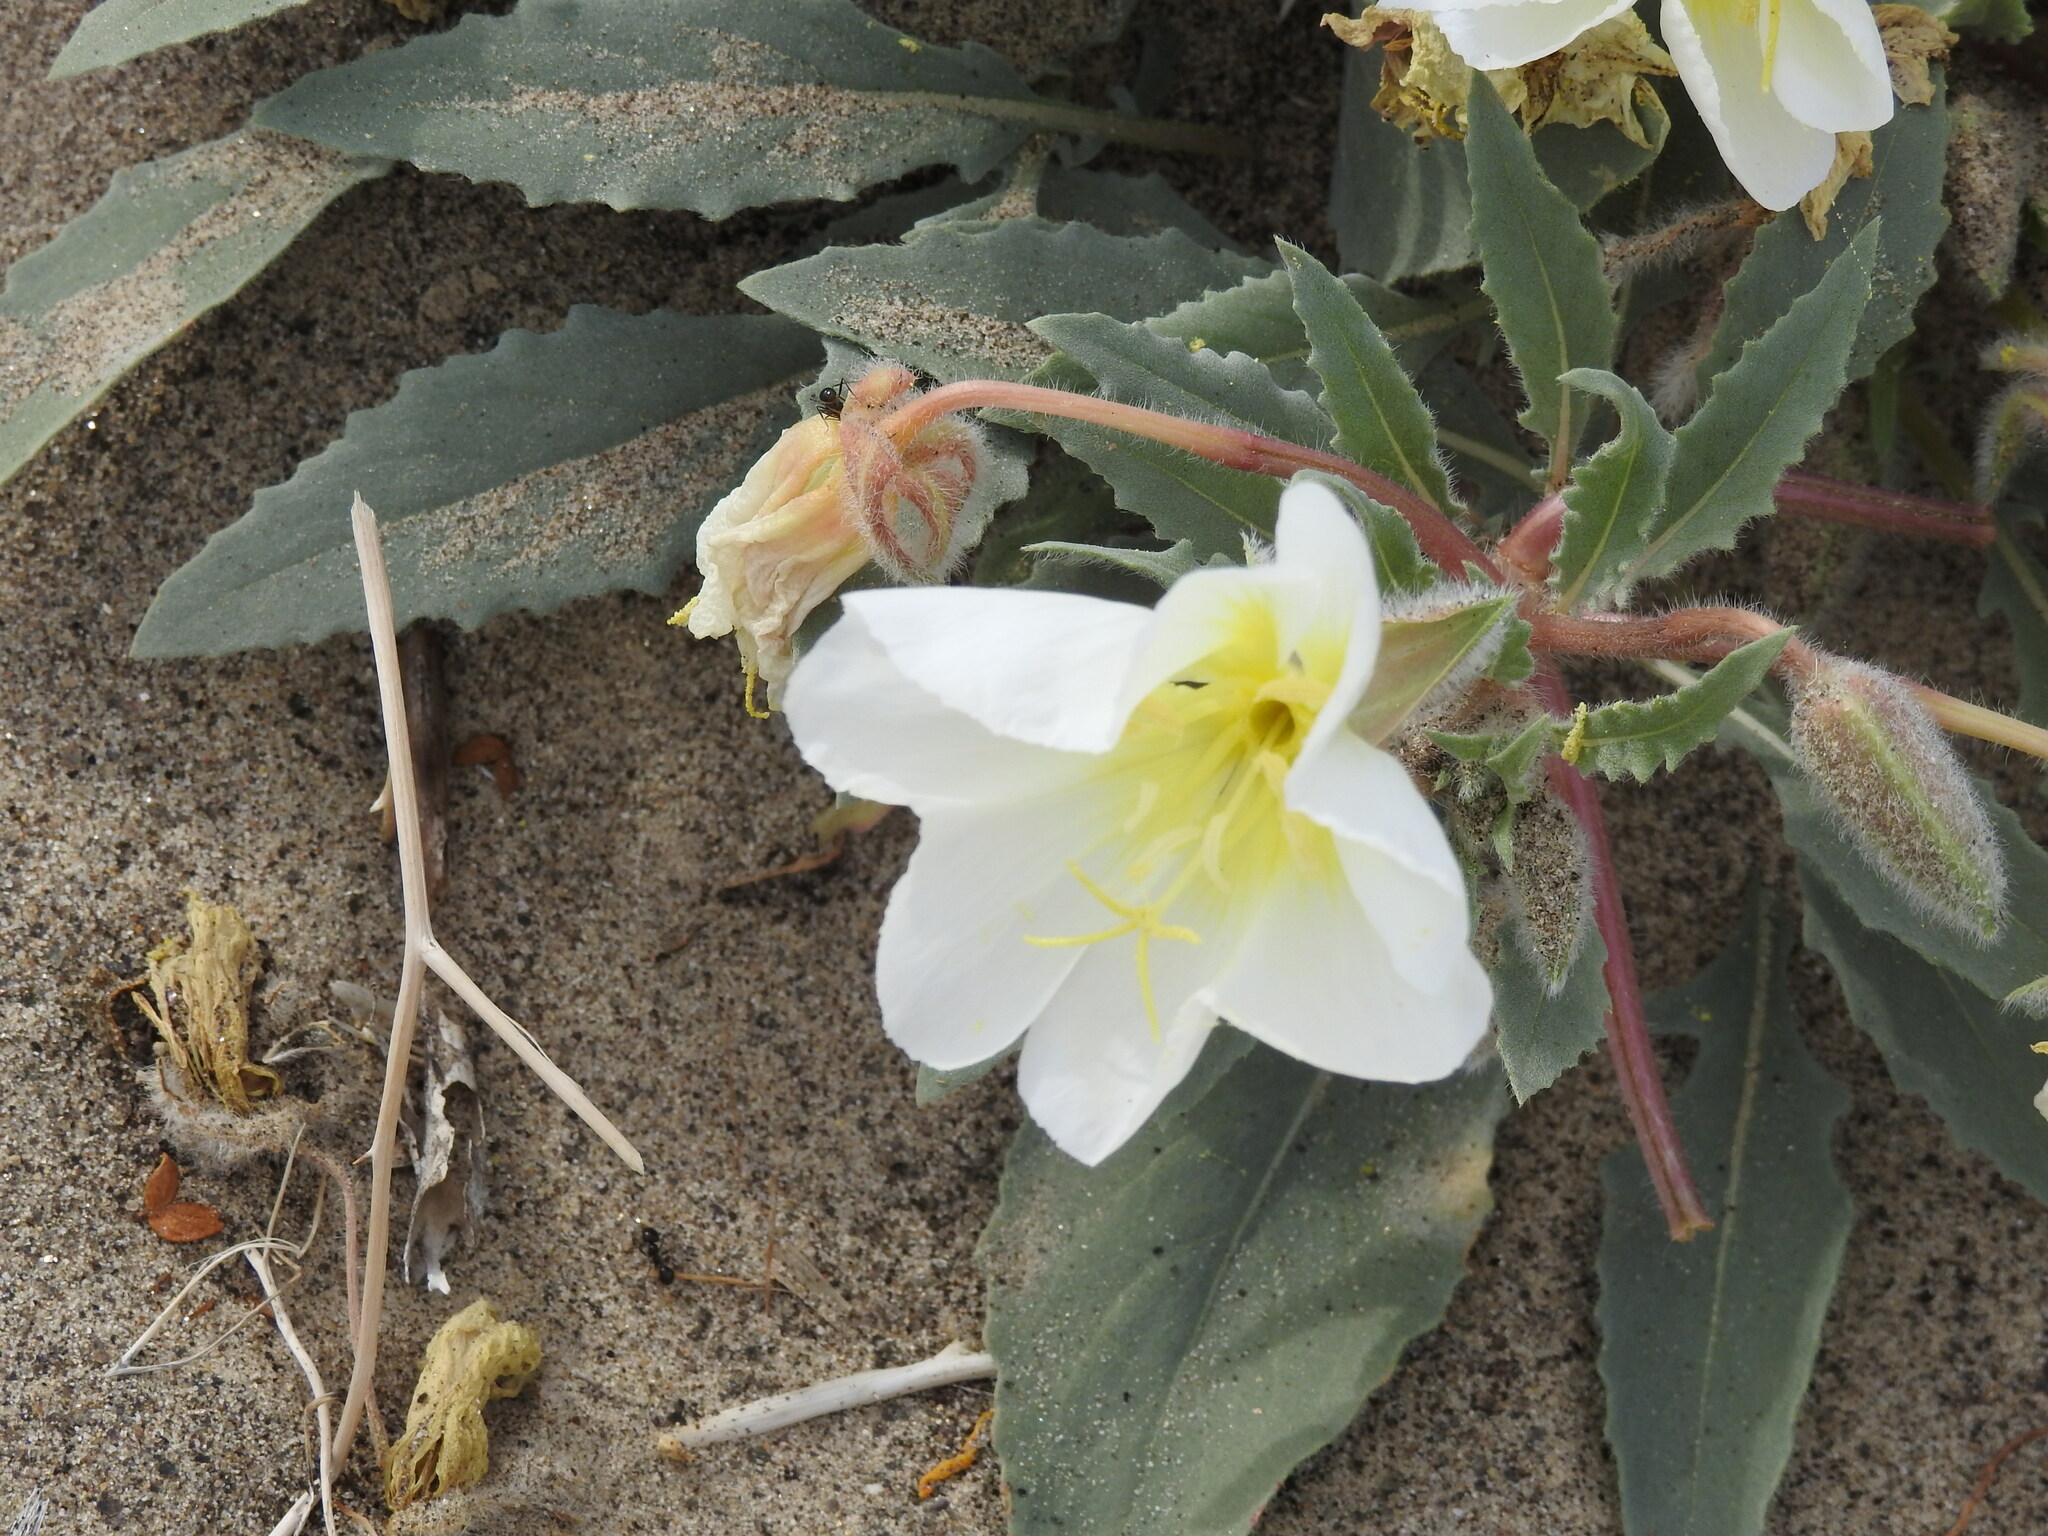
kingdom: Plantae
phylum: Tracheophyta
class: Magnoliopsida
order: Myrtales
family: Onagraceae
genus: Oenothera
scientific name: Oenothera deltoides
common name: Basket evening-primrose
